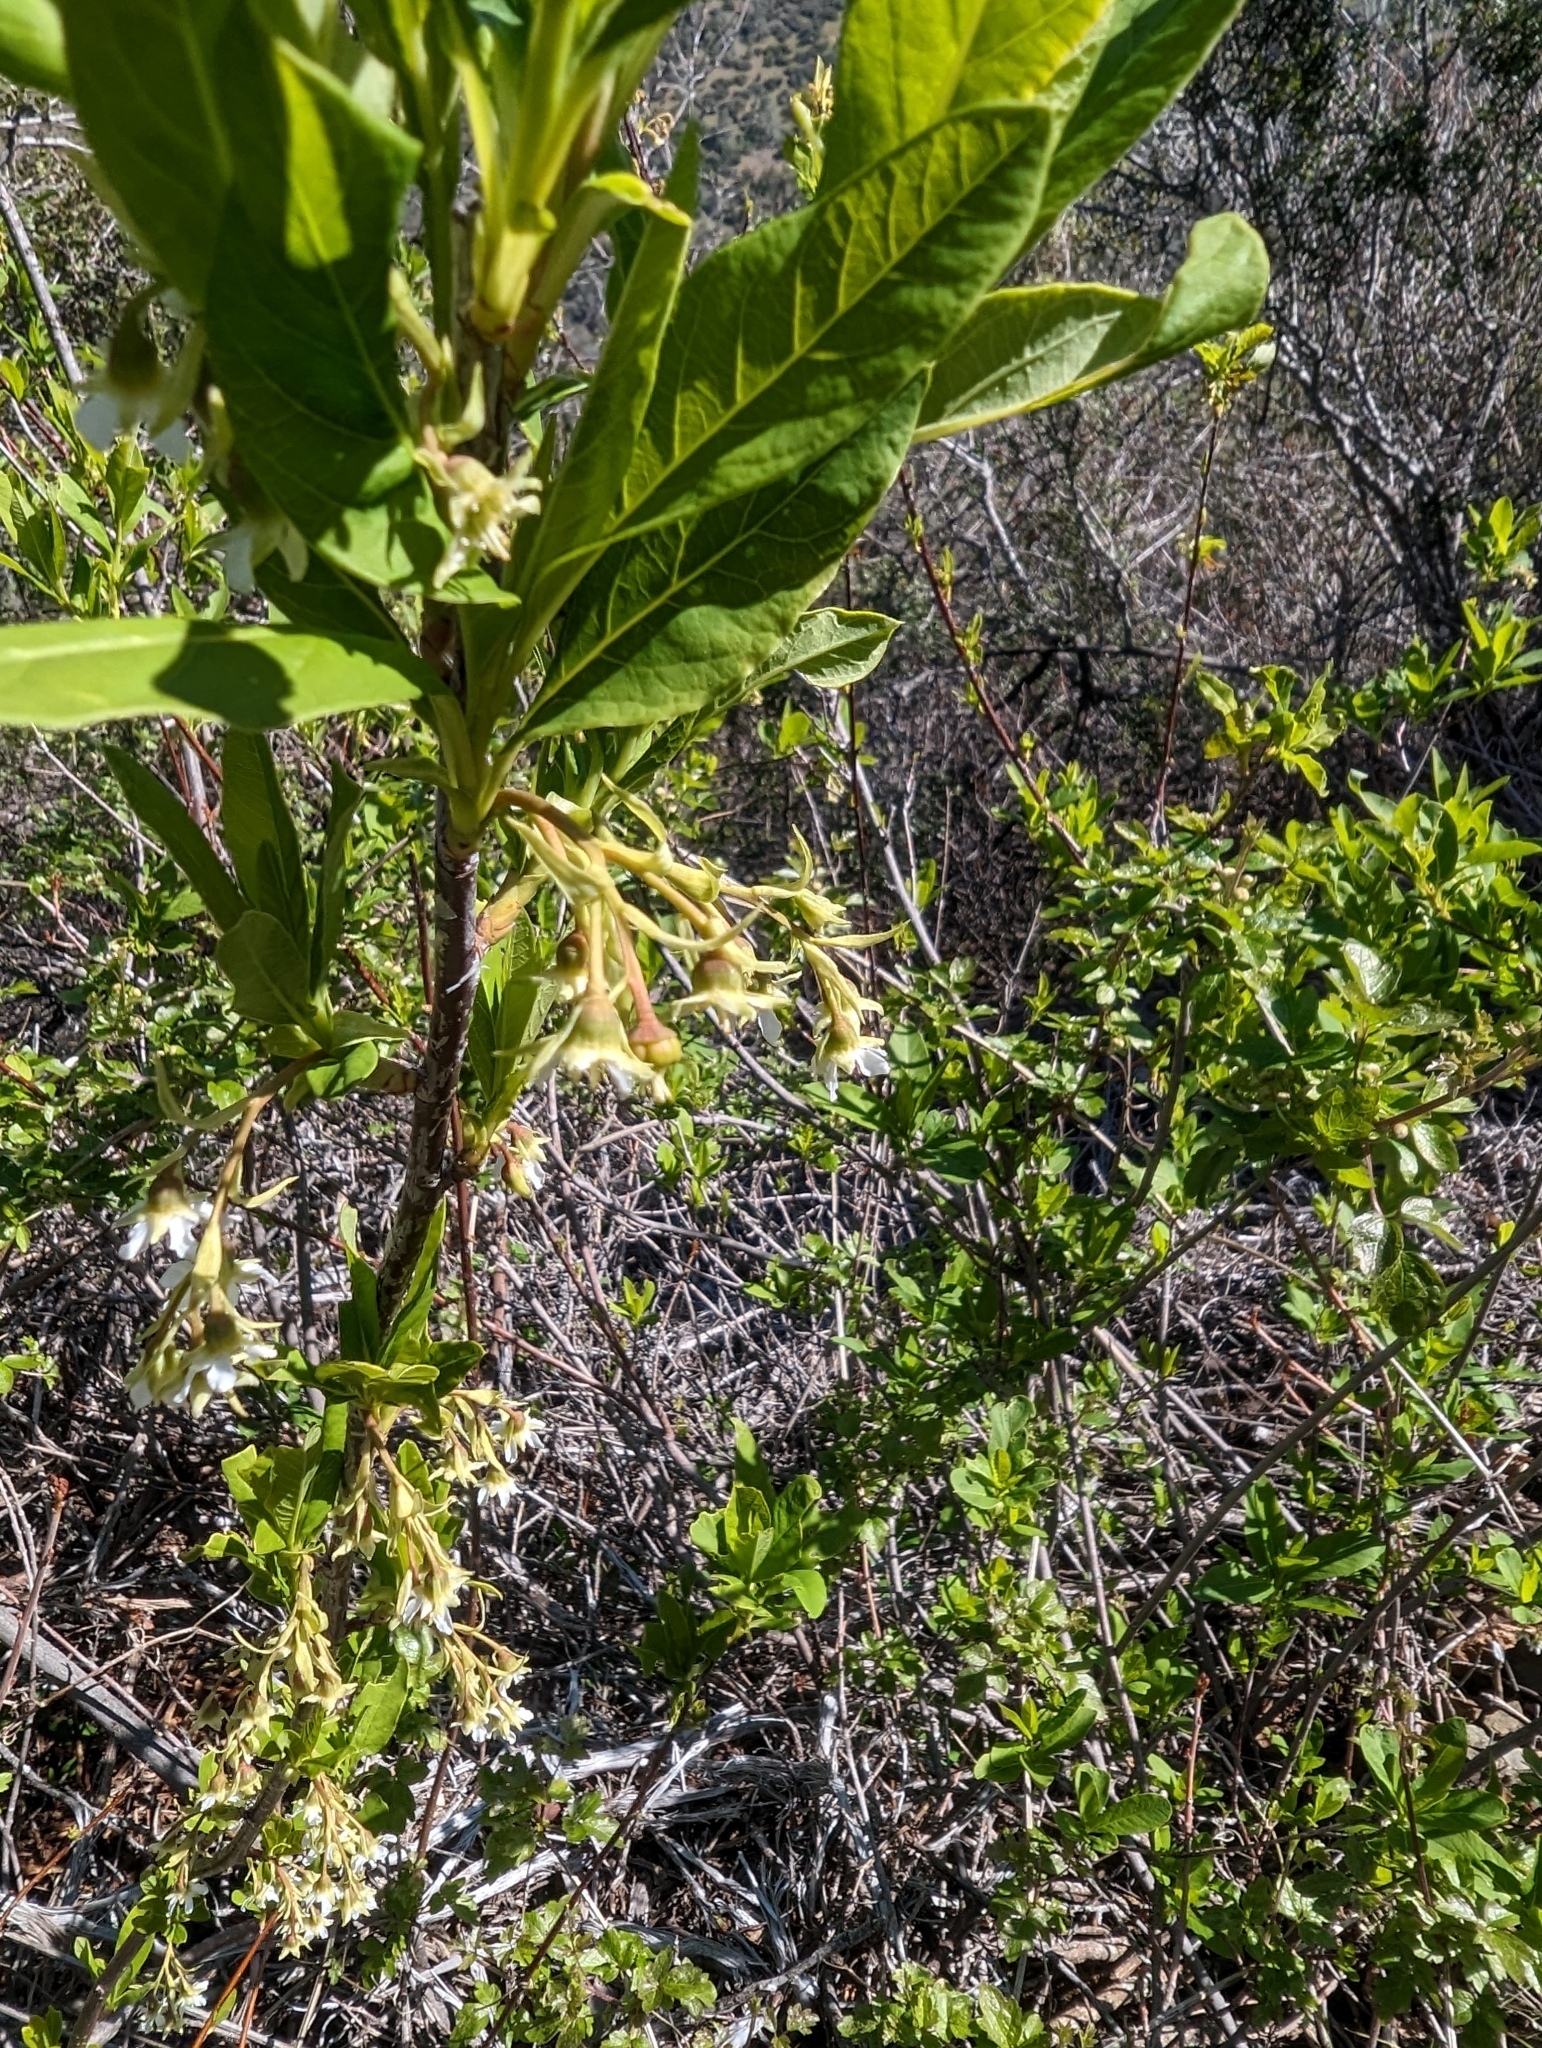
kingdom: Plantae
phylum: Tracheophyta
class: Magnoliopsida
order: Rosales
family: Rosaceae
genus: Oemleria
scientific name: Oemleria cerasiformis
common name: Osoberry
